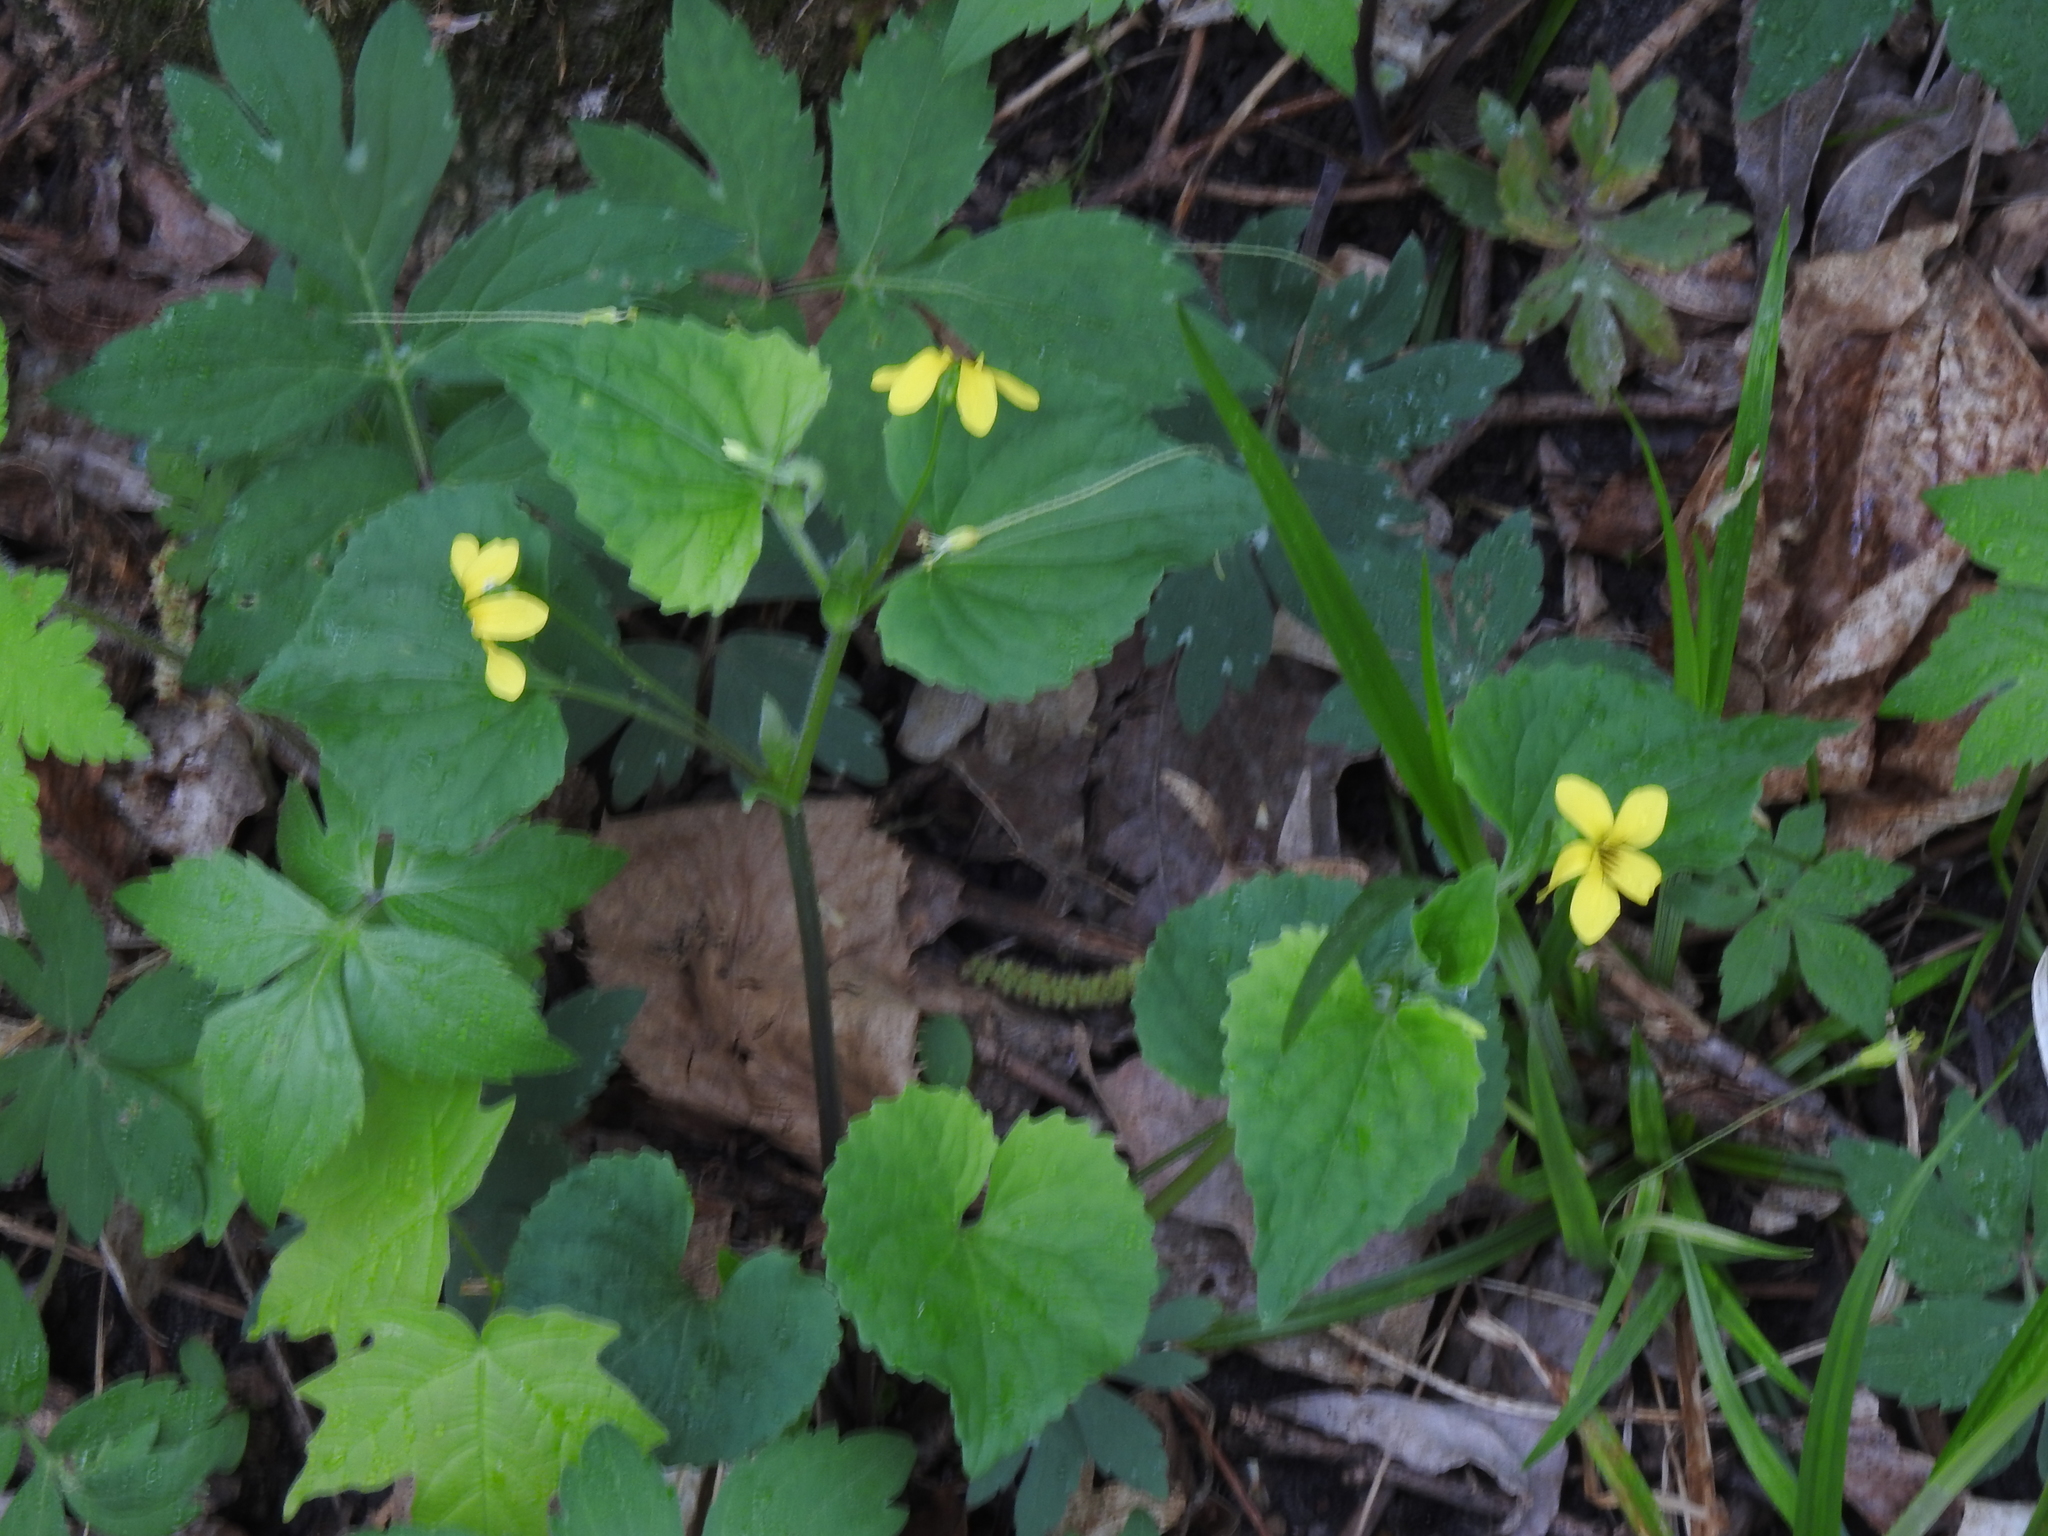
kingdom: Plantae
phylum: Tracheophyta
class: Magnoliopsida
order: Malpighiales
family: Violaceae
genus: Viola
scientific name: Viola eriocarpa
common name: Smooth yellow violet
